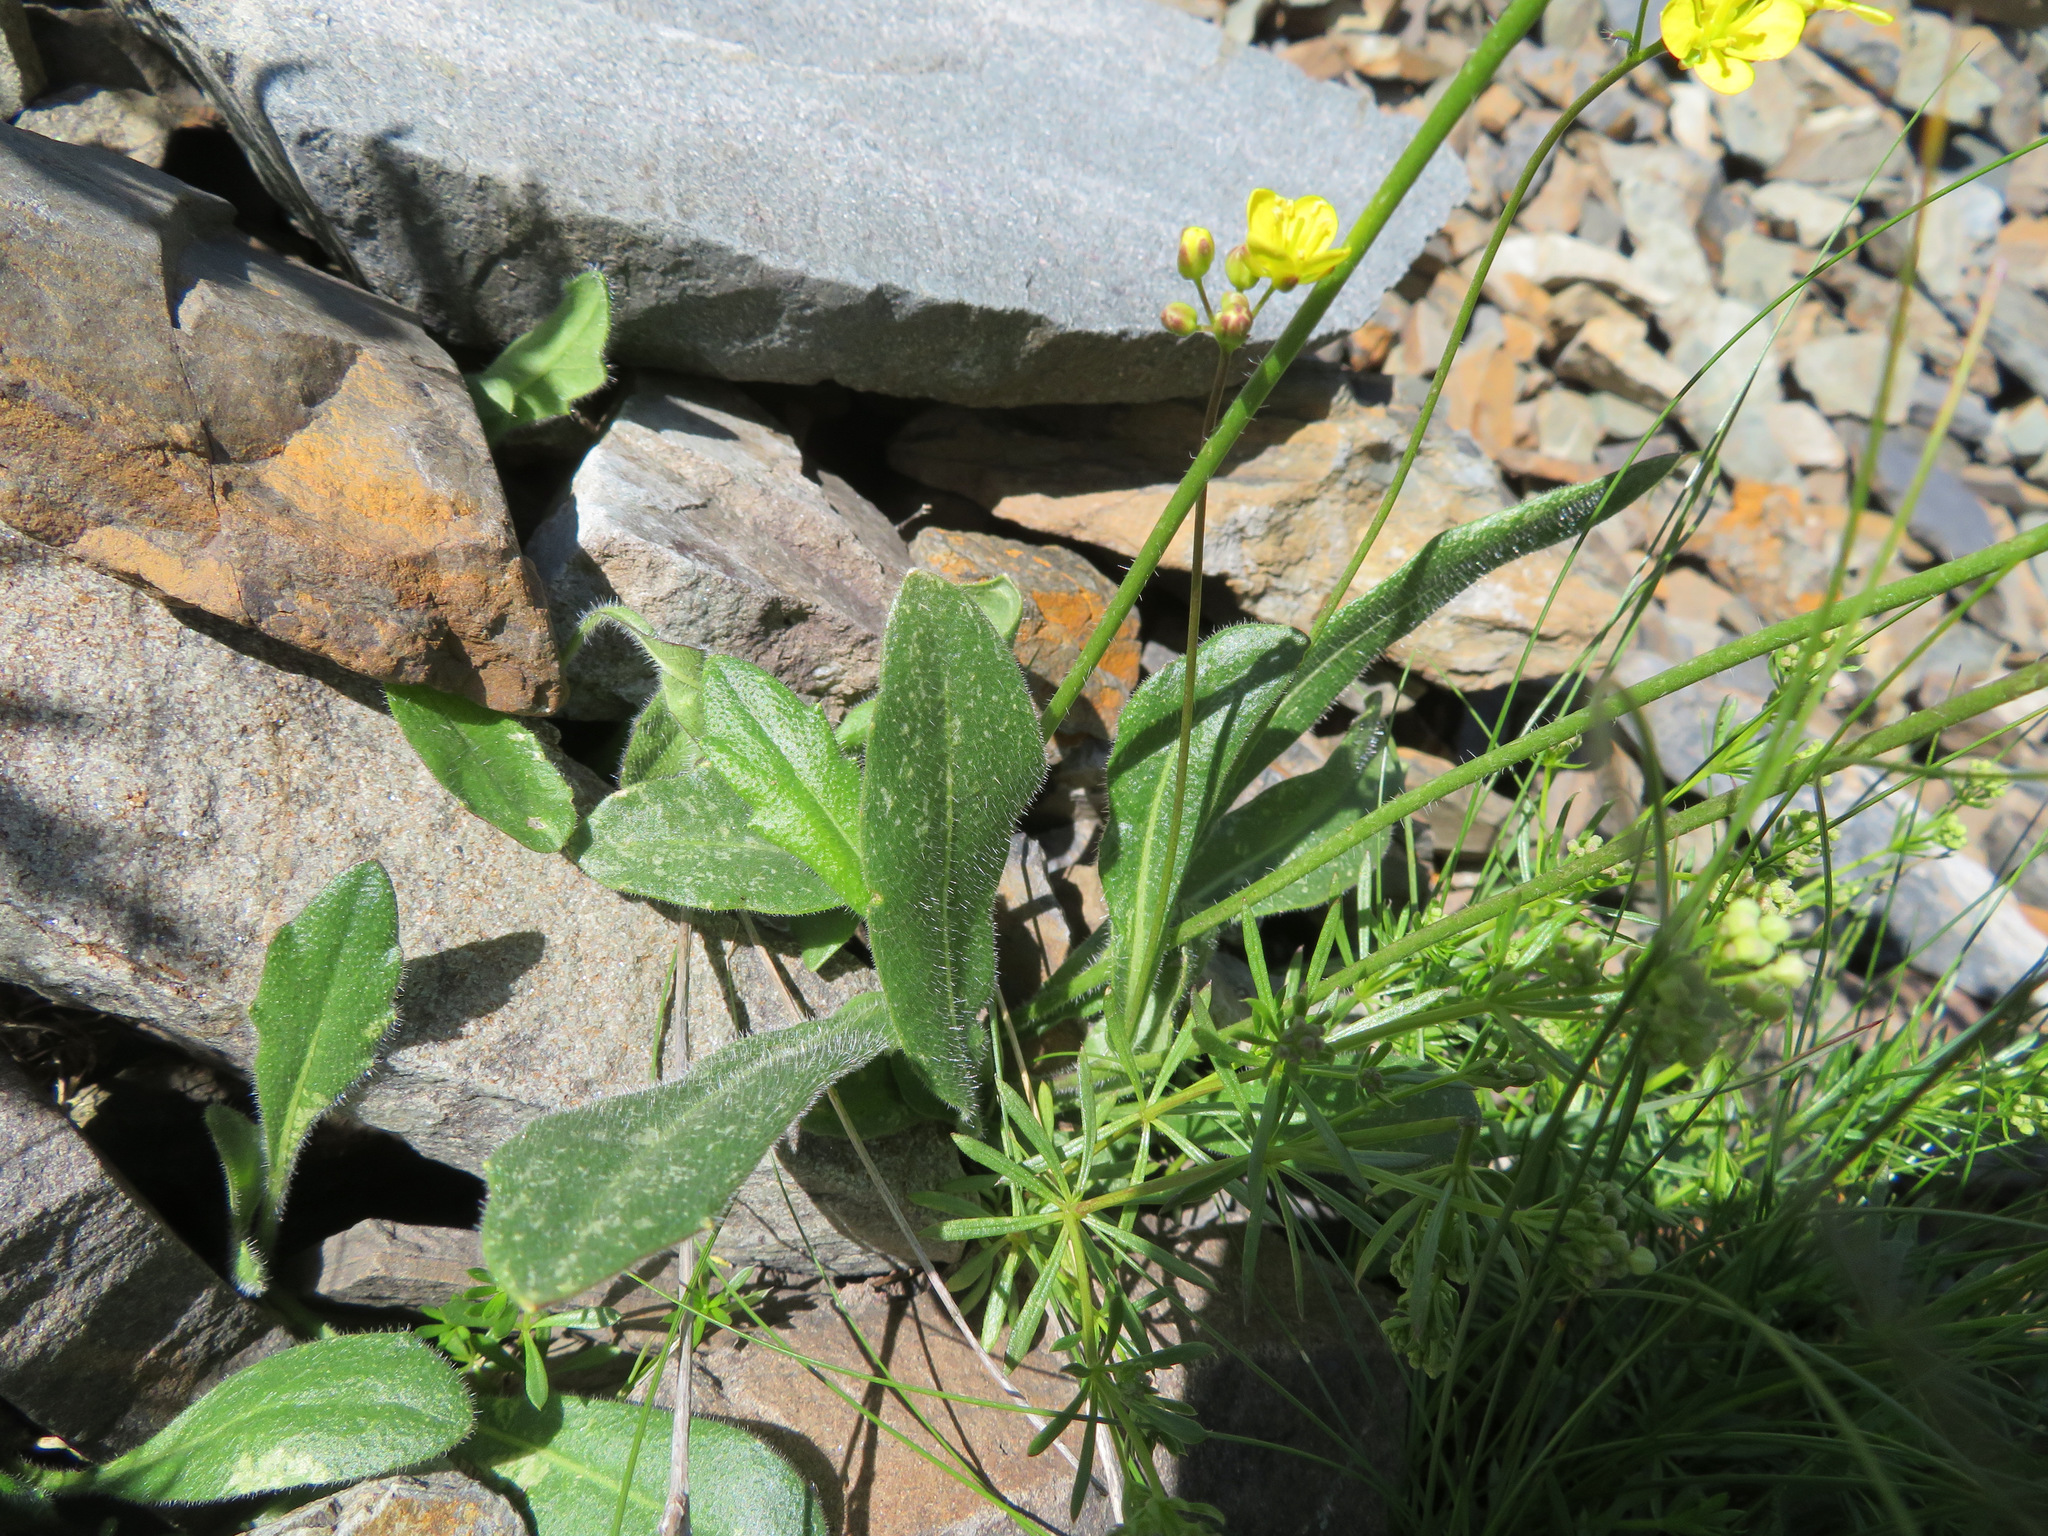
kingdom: Plantae
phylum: Tracheophyta
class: Magnoliopsida
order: Brassicales
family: Brassicaceae
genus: Biscutella
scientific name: Biscutella laevigata
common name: Buckler mustard
